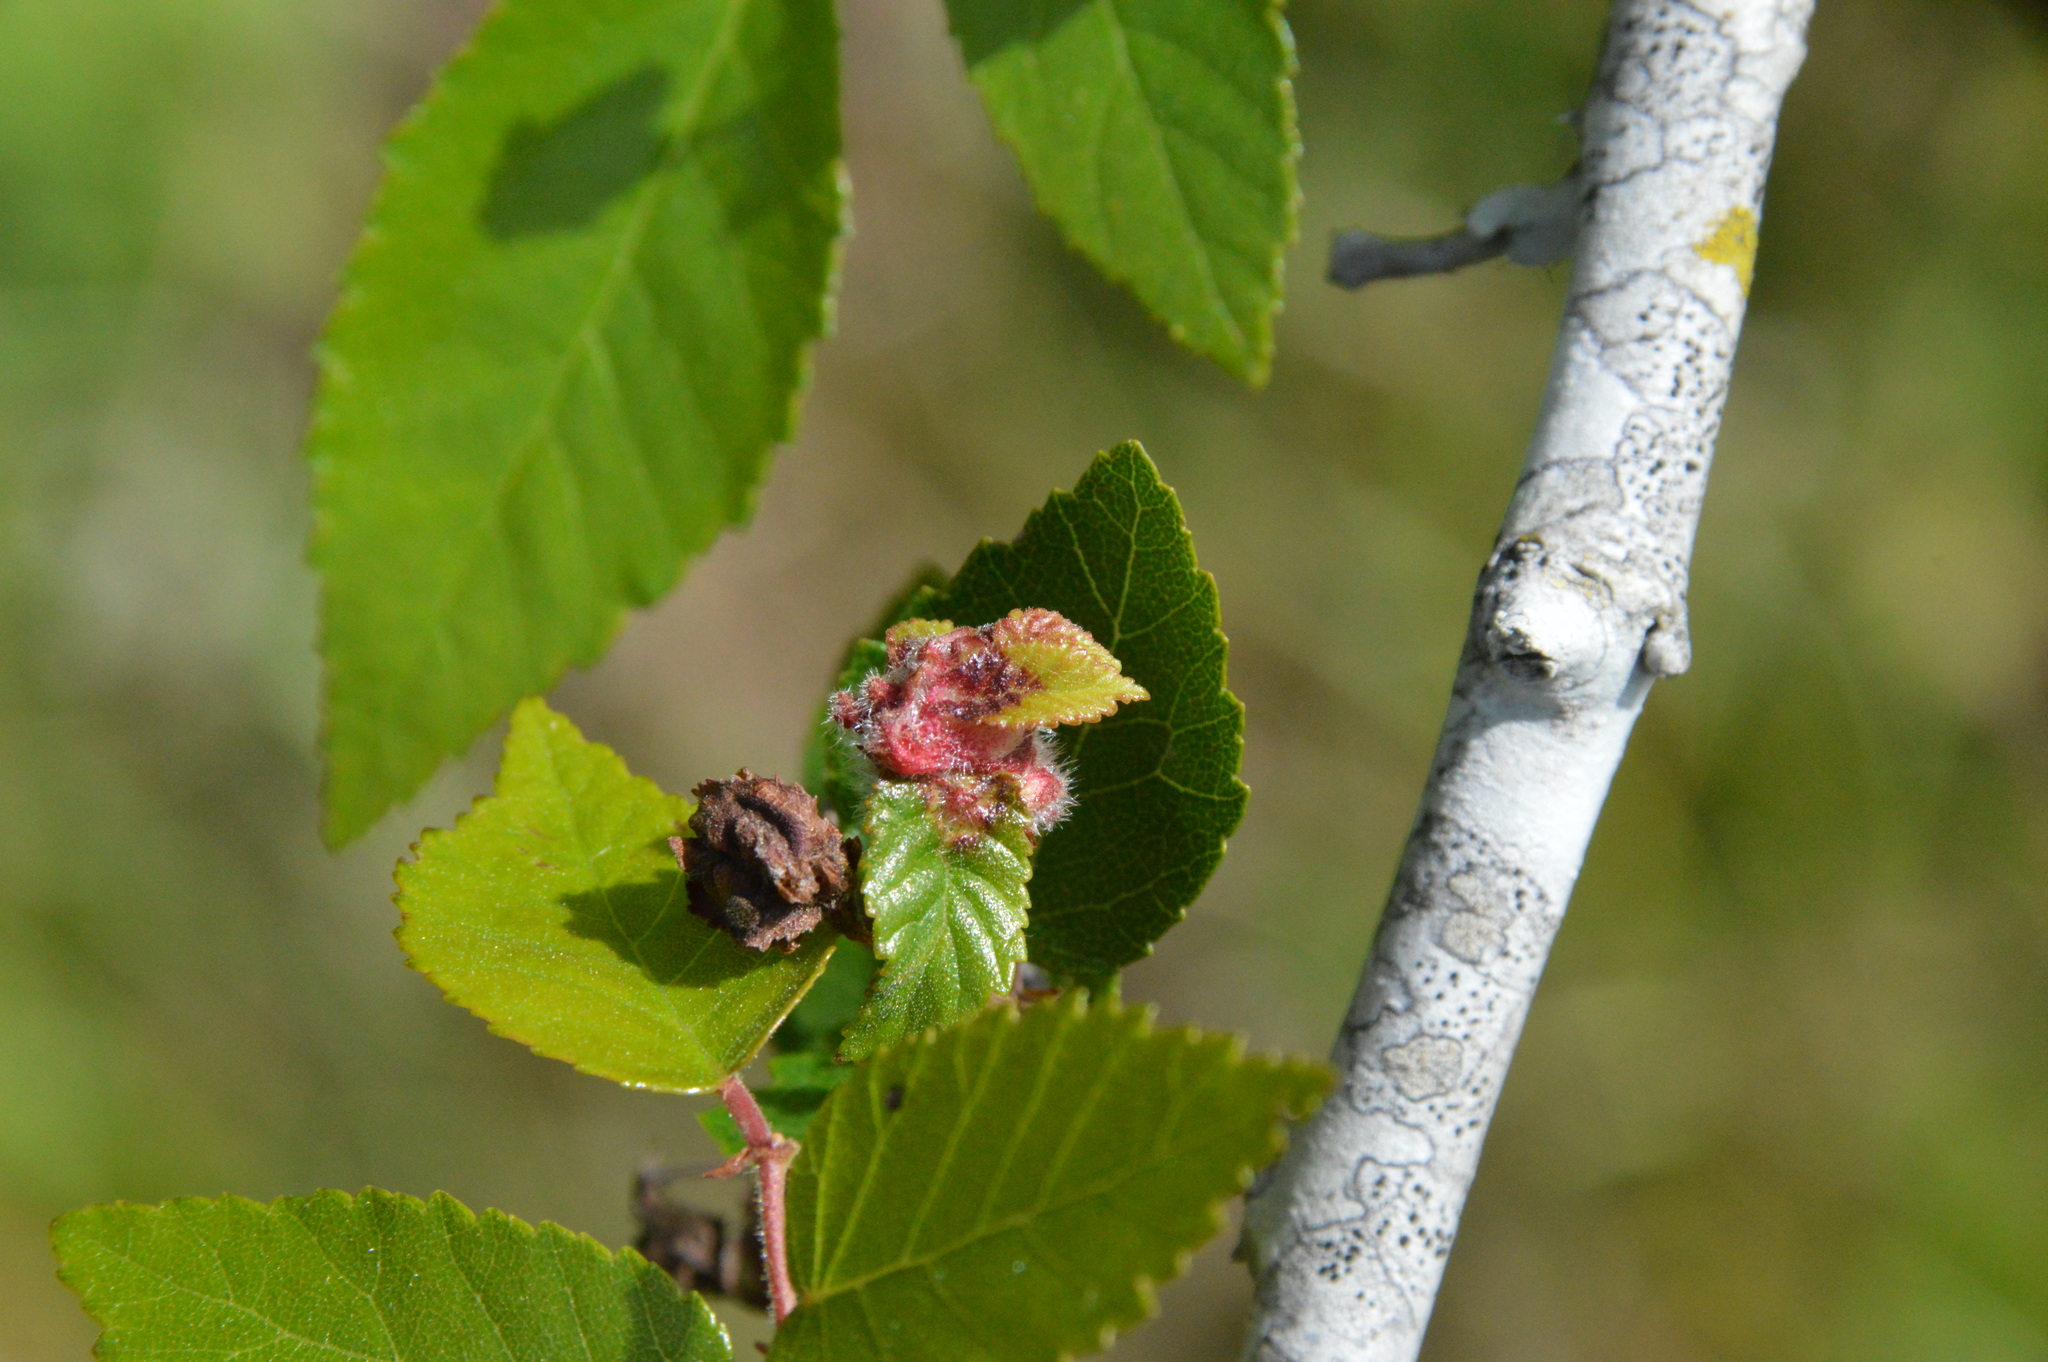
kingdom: Plantae
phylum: Tracheophyta
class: Magnoliopsida
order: Rosales
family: Ulmaceae
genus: Planera
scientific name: Planera aquatica
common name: Water-elm
